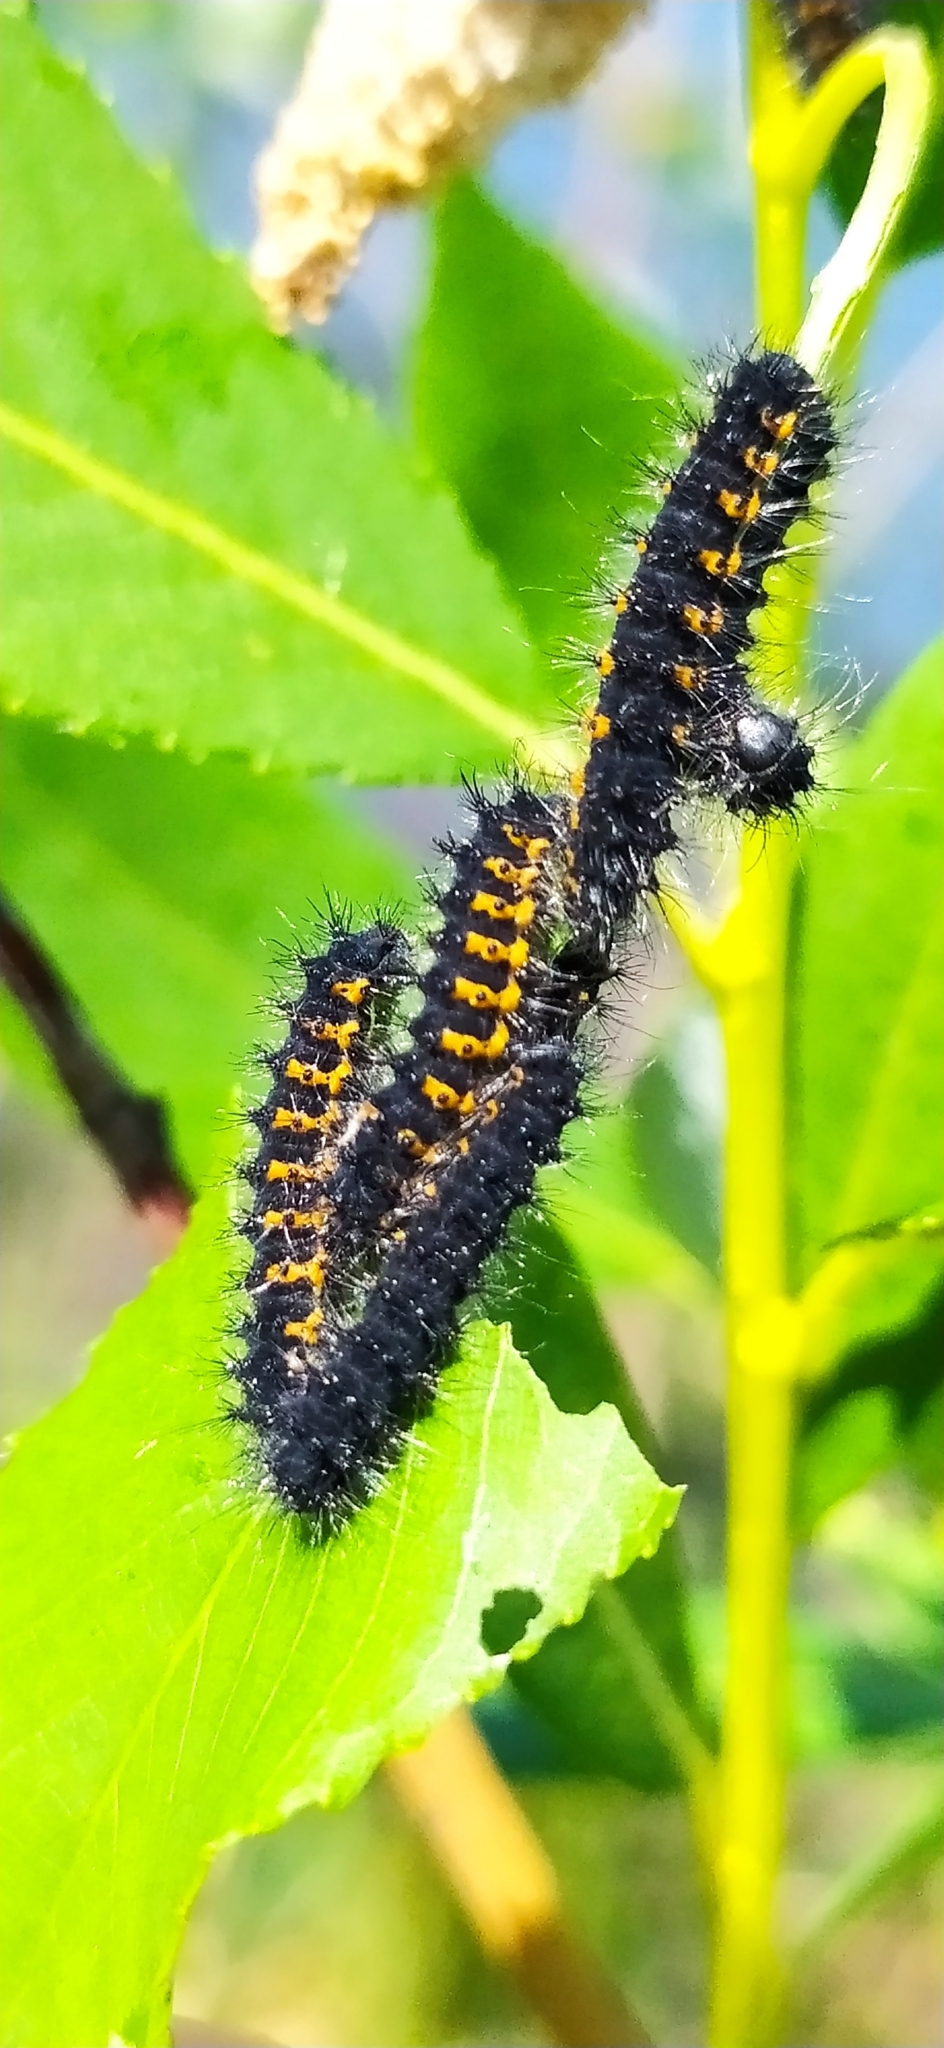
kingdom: Animalia
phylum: Arthropoda
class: Insecta
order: Lepidoptera
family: Saturniidae
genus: Saturnia
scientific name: Saturnia pavonia
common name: Emperor moth
